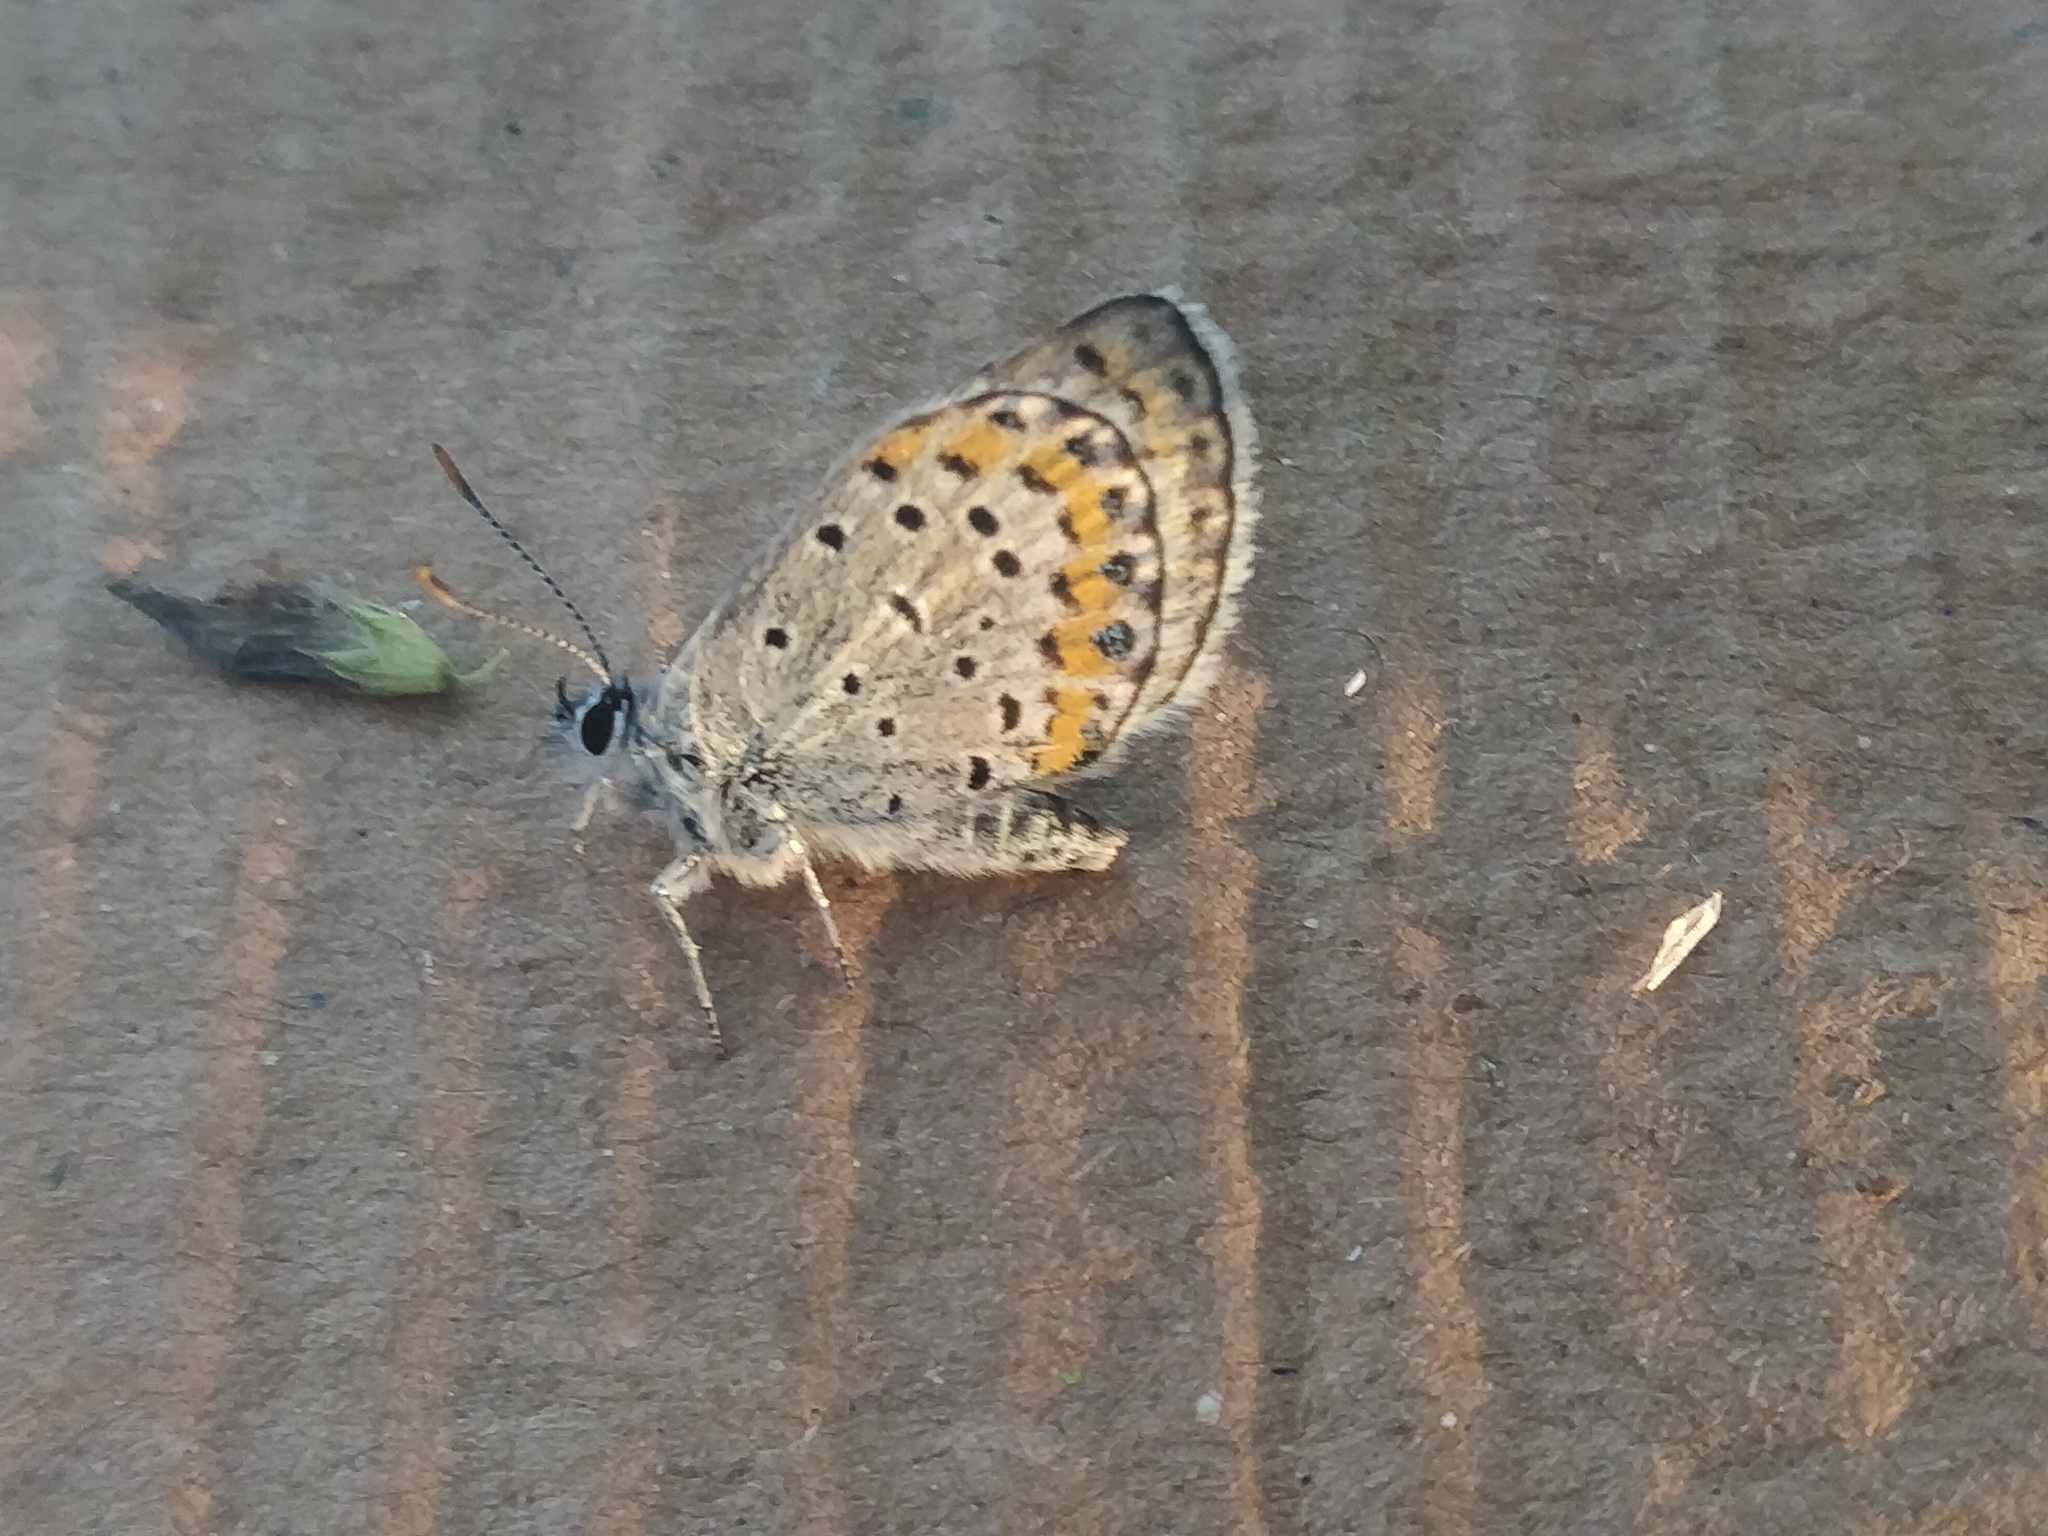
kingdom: Animalia
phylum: Arthropoda
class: Insecta
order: Lepidoptera
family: Lycaenidae
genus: Lycaeides
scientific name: Lycaeides melissa
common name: Melissa blue
